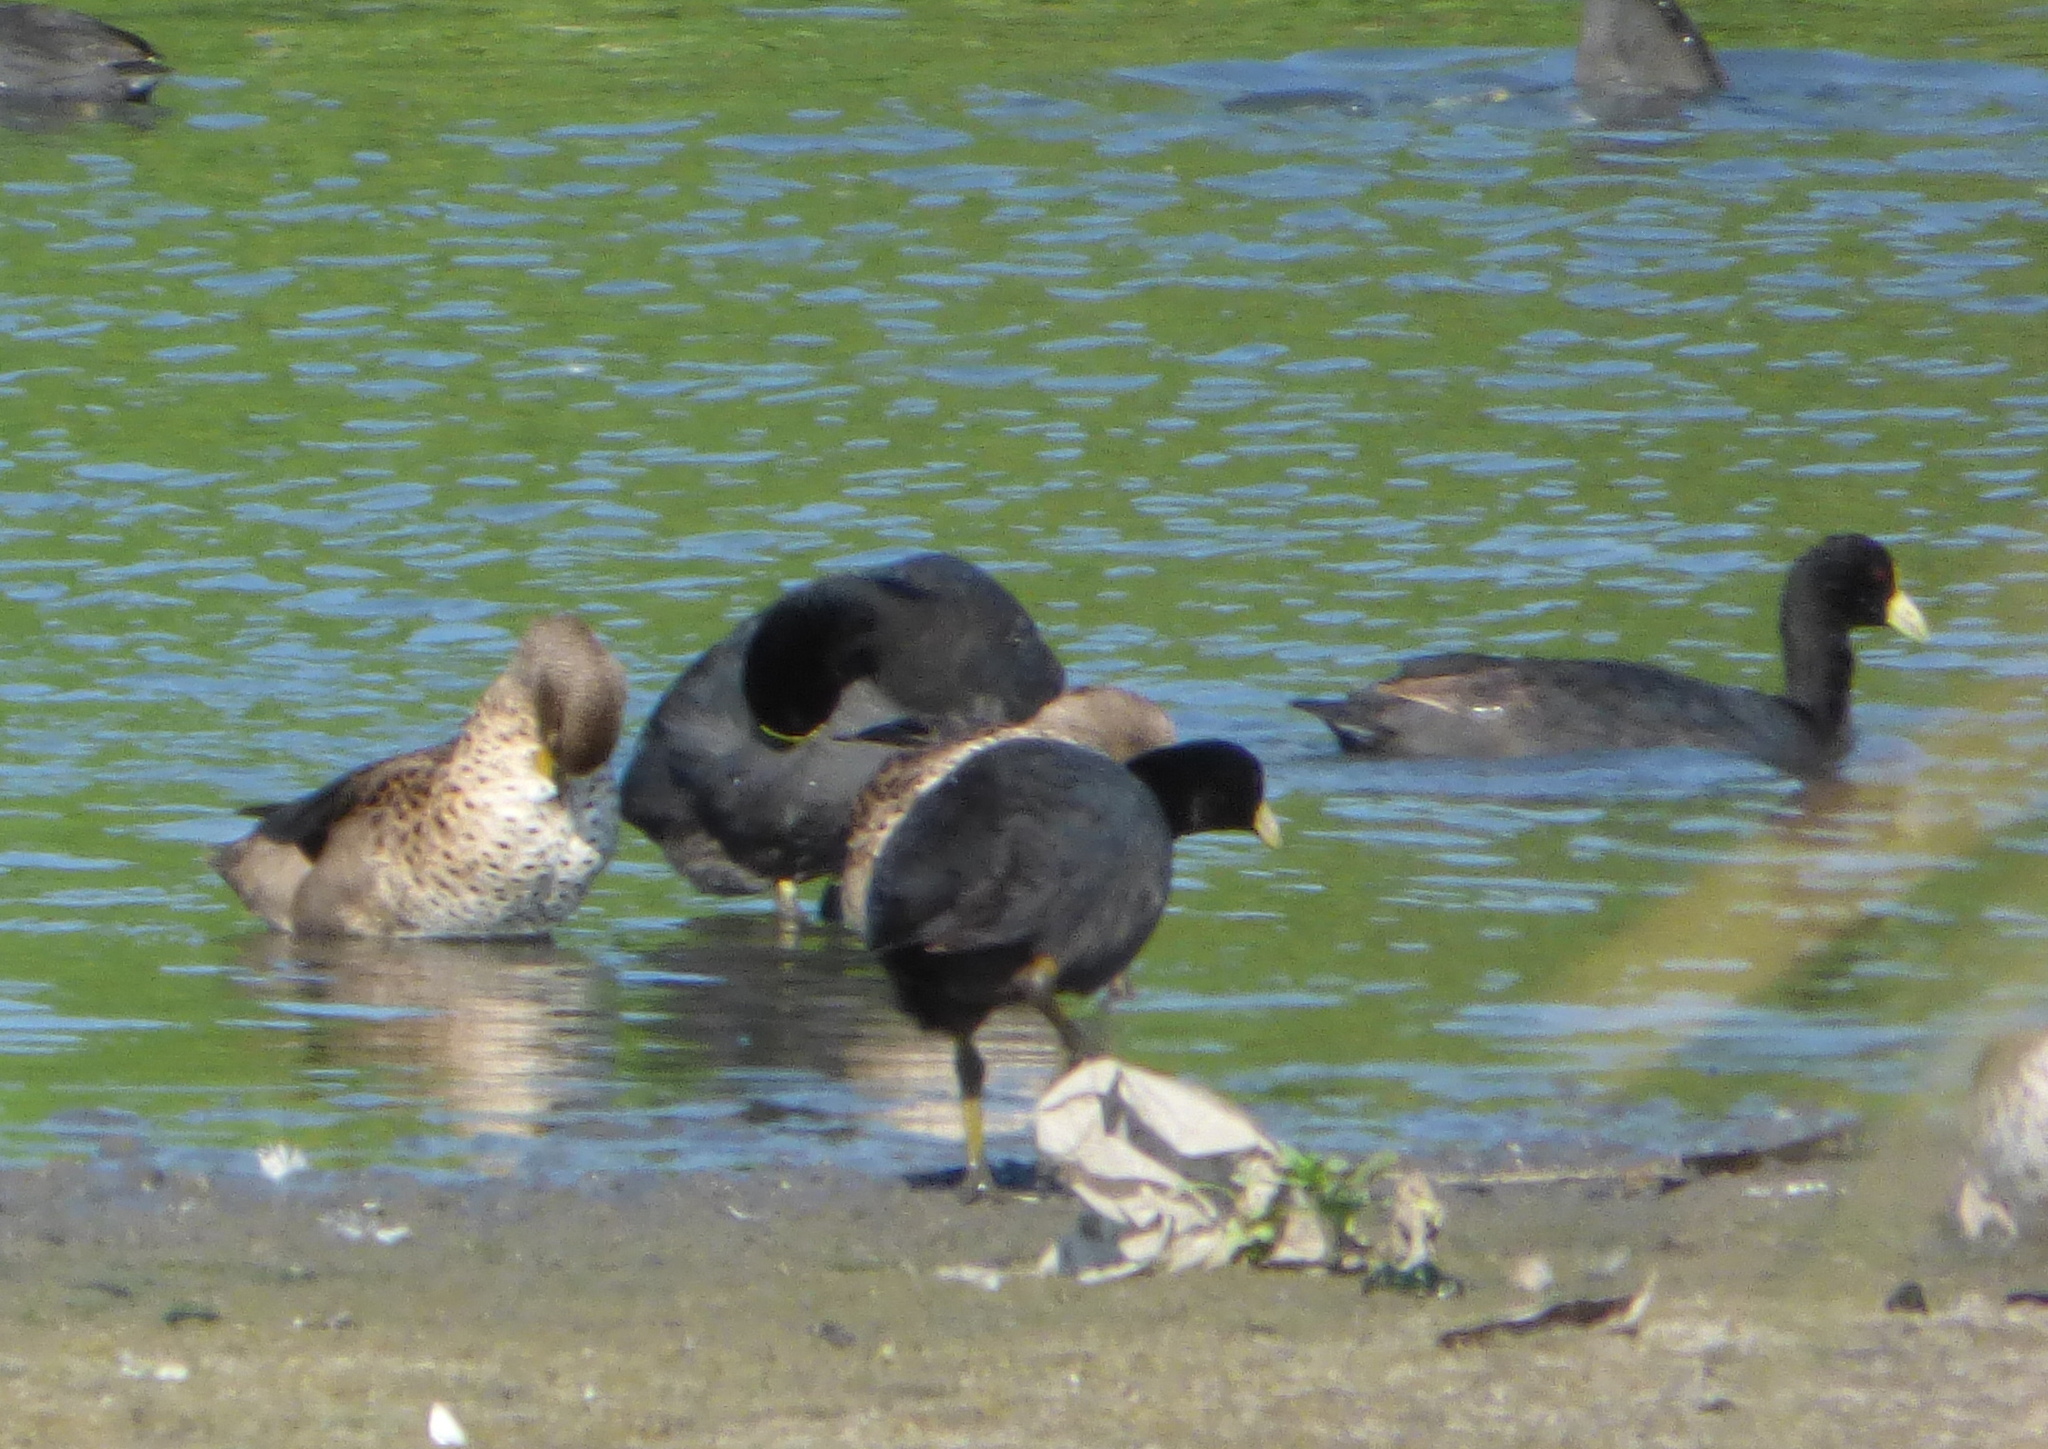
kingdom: Animalia
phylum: Chordata
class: Aves
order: Gruiformes
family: Rallidae
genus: Fulica
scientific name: Fulica leucoptera
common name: White-winged coot
